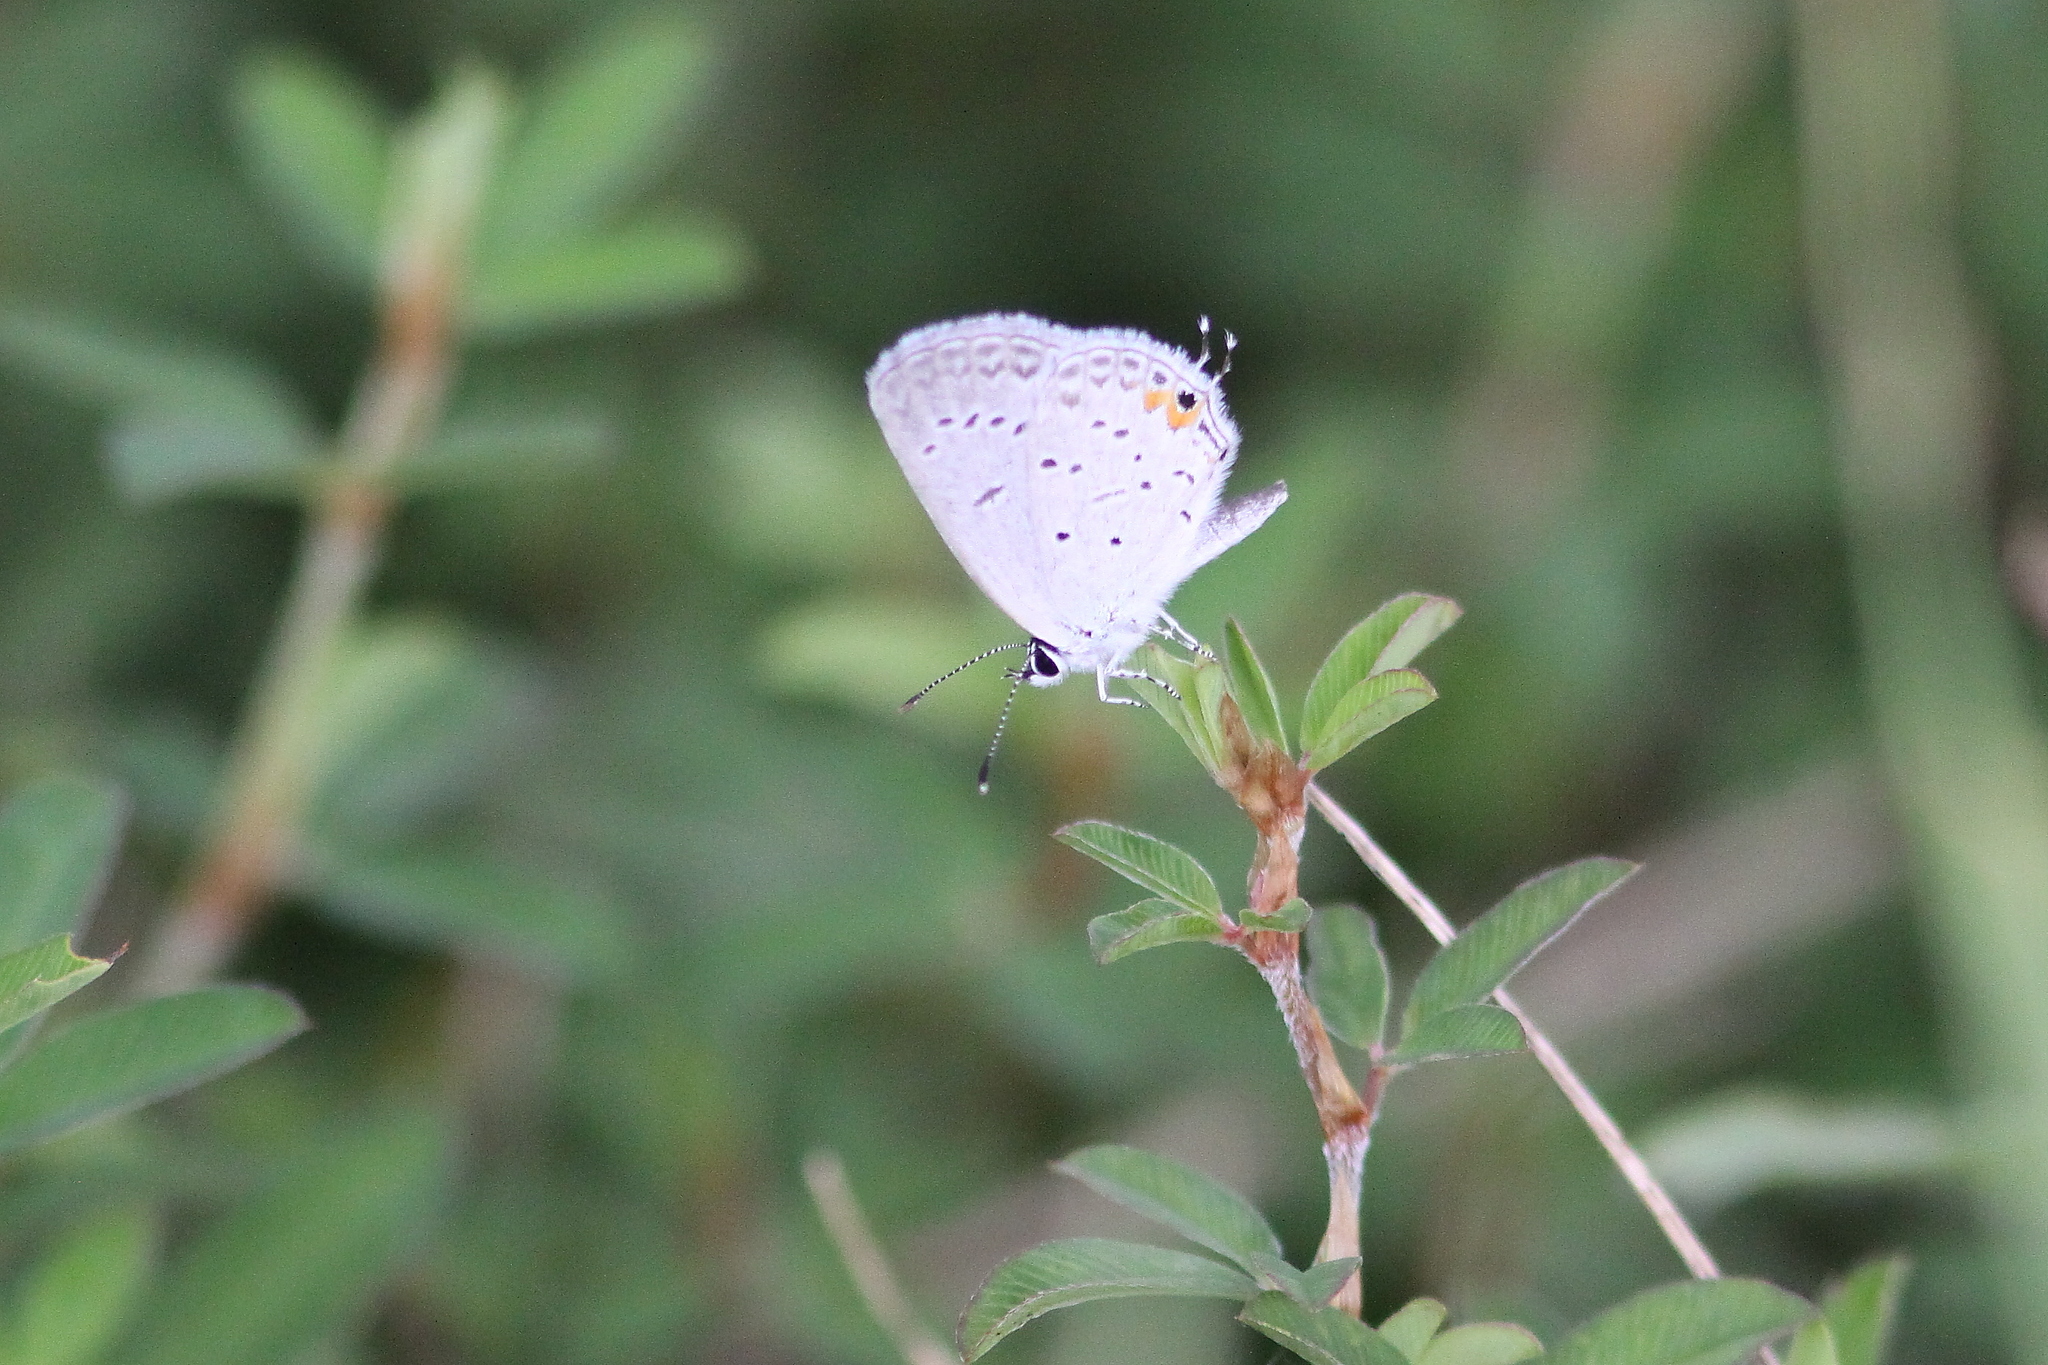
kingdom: Animalia
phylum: Arthropoda
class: Insecta
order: Lepidoptera
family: Lycaenidae
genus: Elkalyce
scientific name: Elkalyce comyntas
